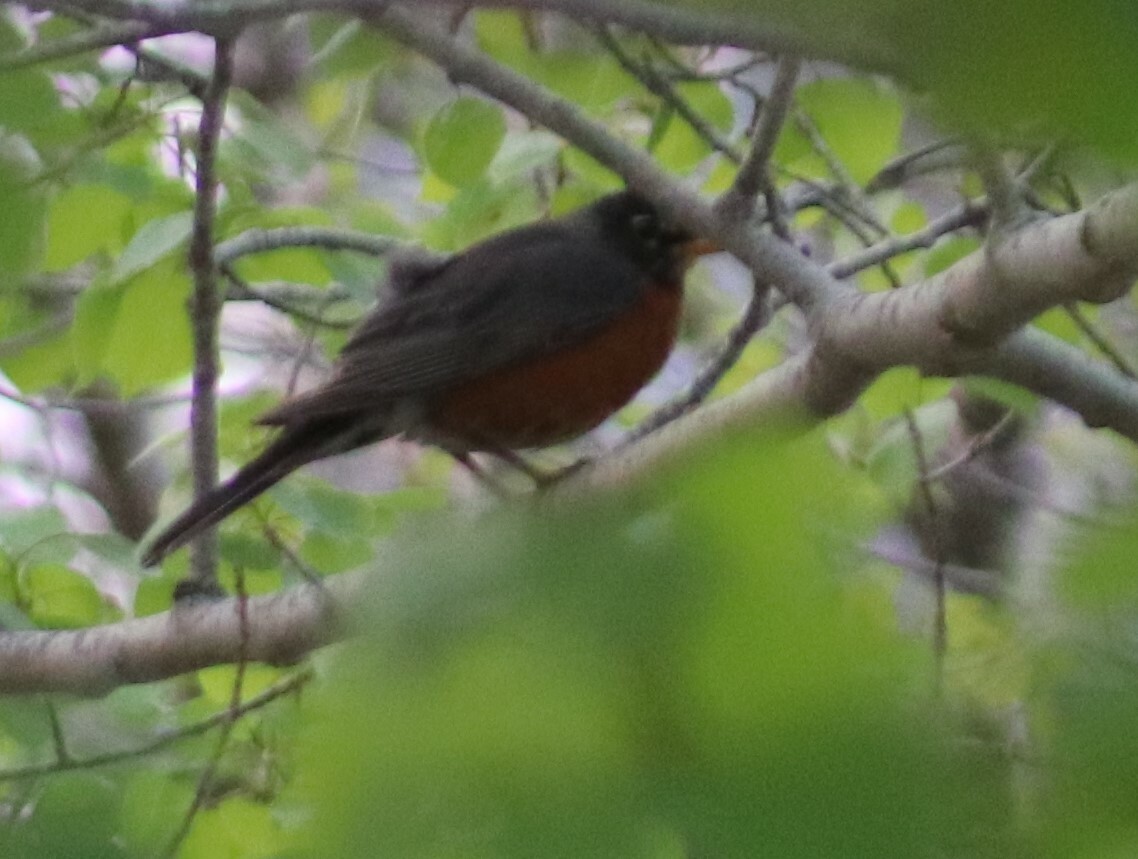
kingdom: Animalia
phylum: Chordata
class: Aves
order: Passeriformes
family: Turdidae
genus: Turdus
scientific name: Turdus migratorius
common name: American robin
